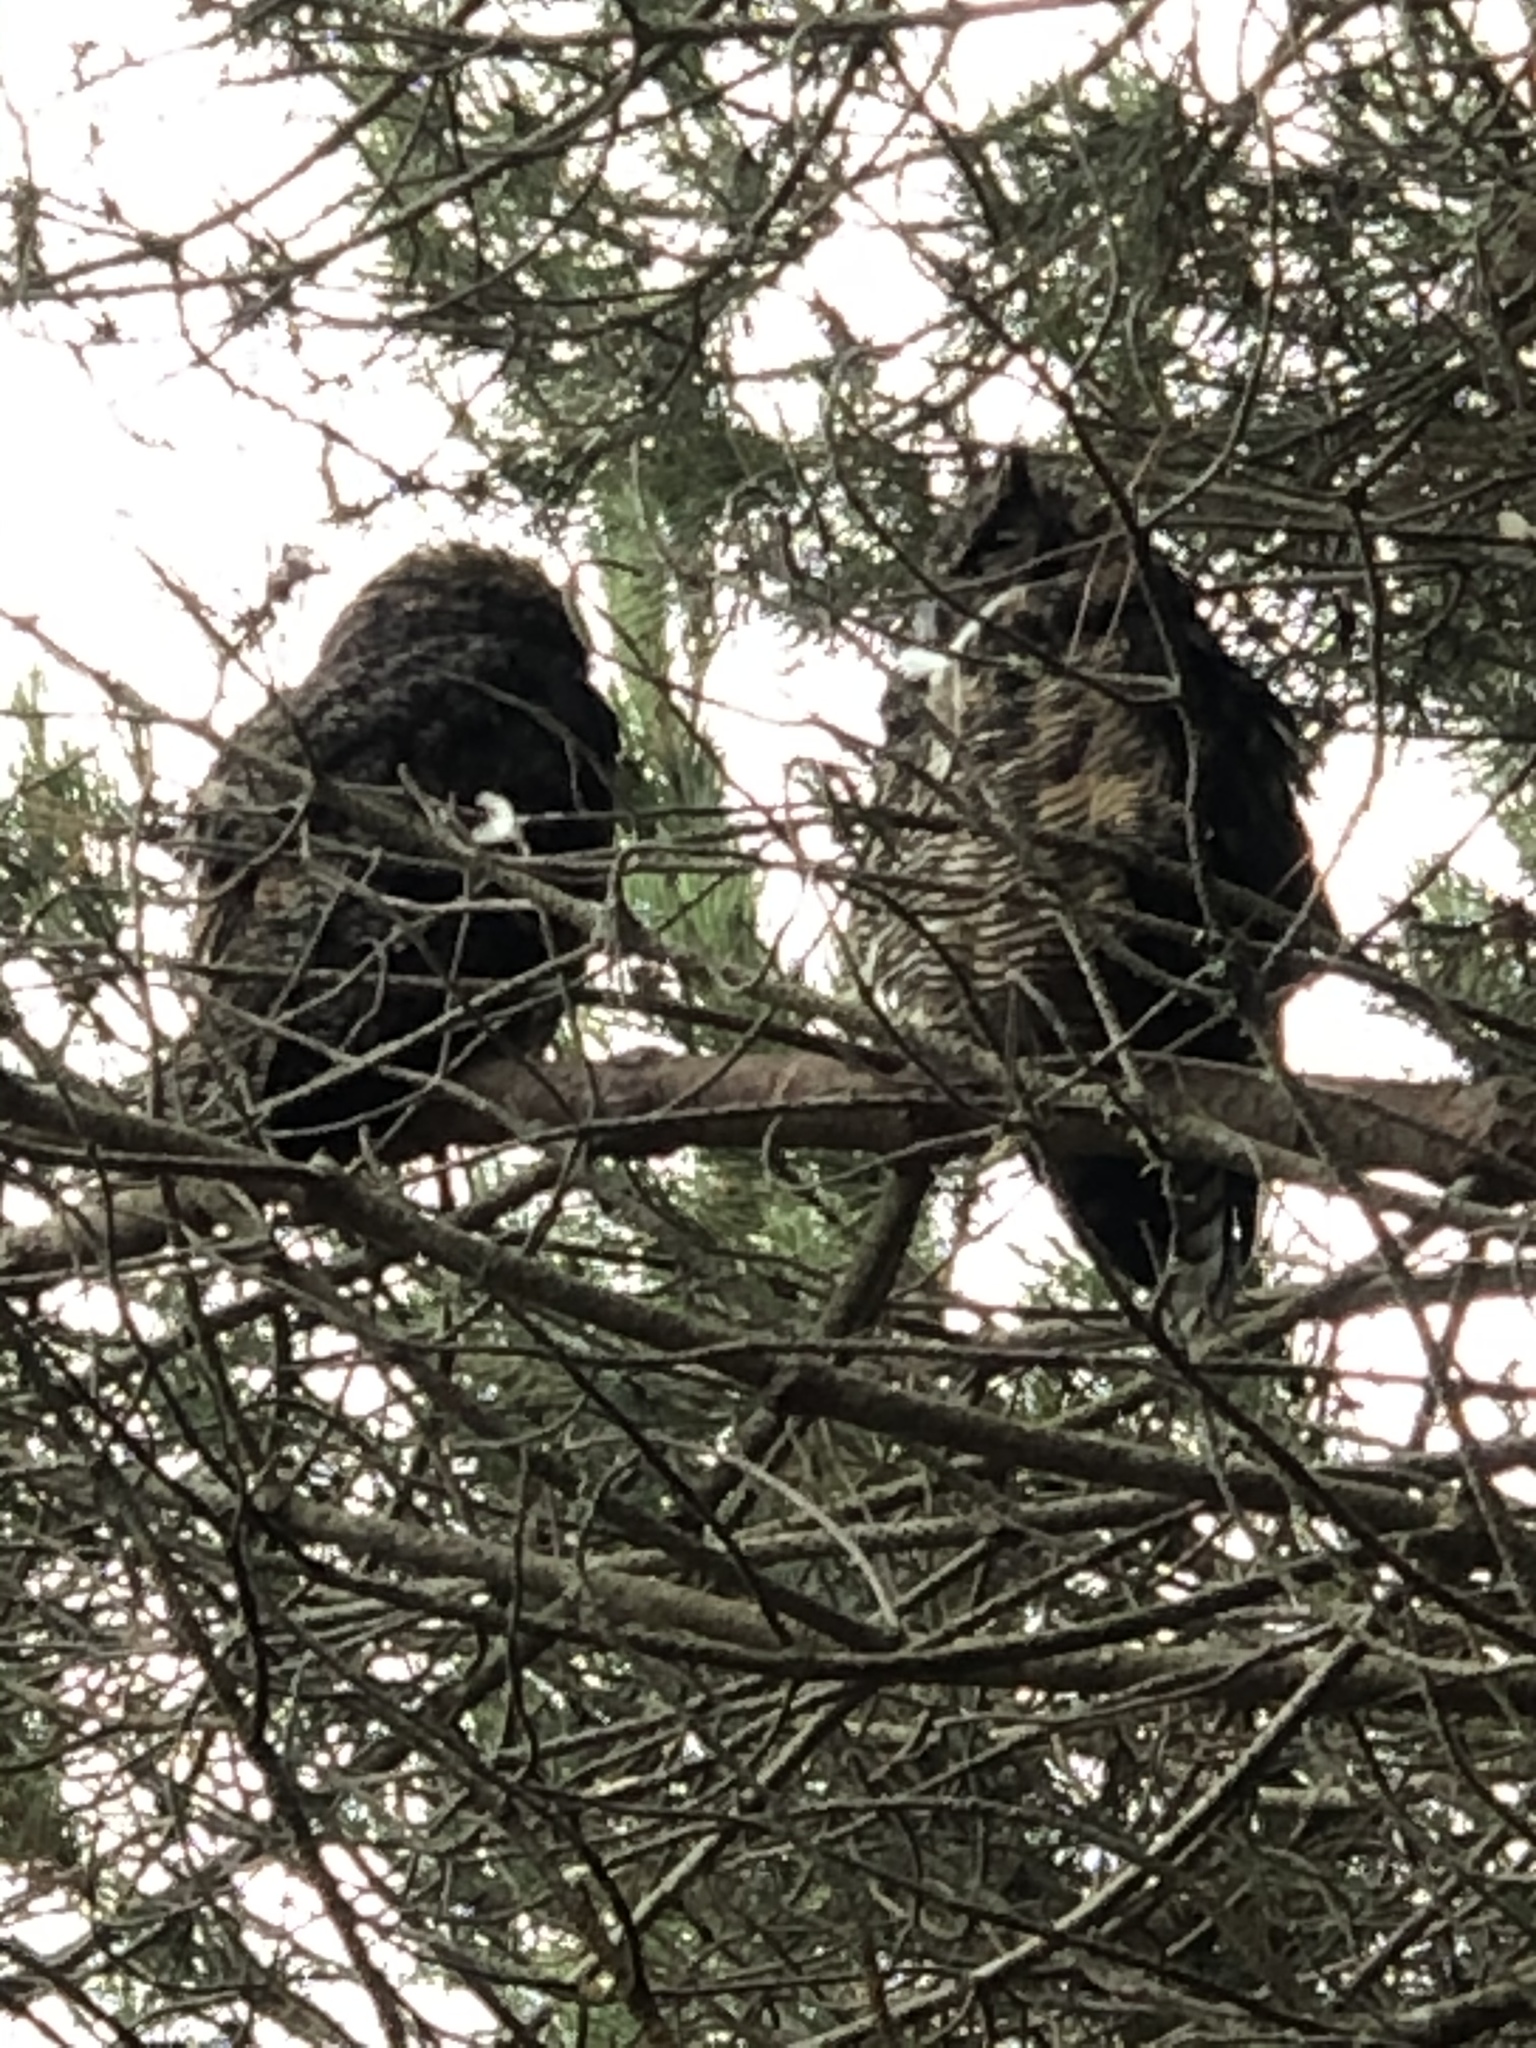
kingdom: Animalia
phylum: Chordata
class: Aves
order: Strigiformes
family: Strigidae
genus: Bubo
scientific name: Bubo virginianus
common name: Great horned owl
